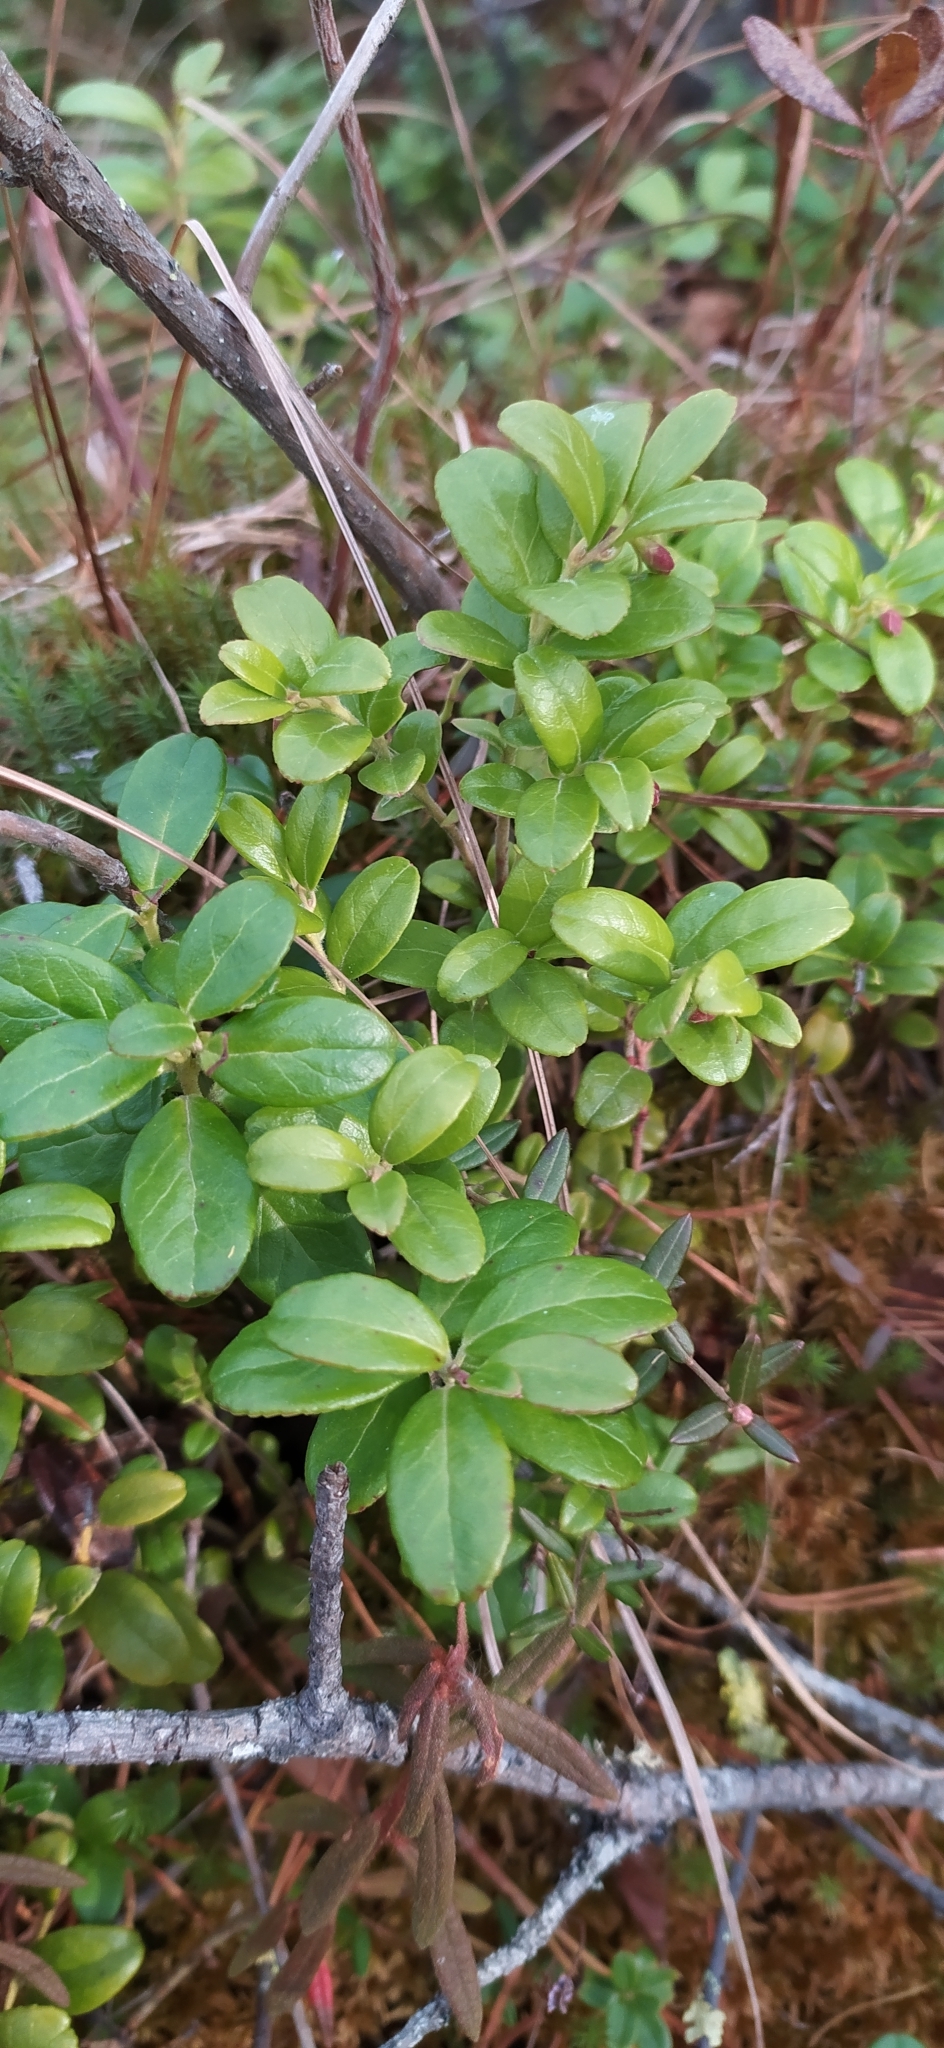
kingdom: Plantae
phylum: Tracheophyta
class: Magnoliopsida
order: Ericales
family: Ericaceae
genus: Vaccinium
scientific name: Vaccinium vitis-idaea
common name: Cowberry
